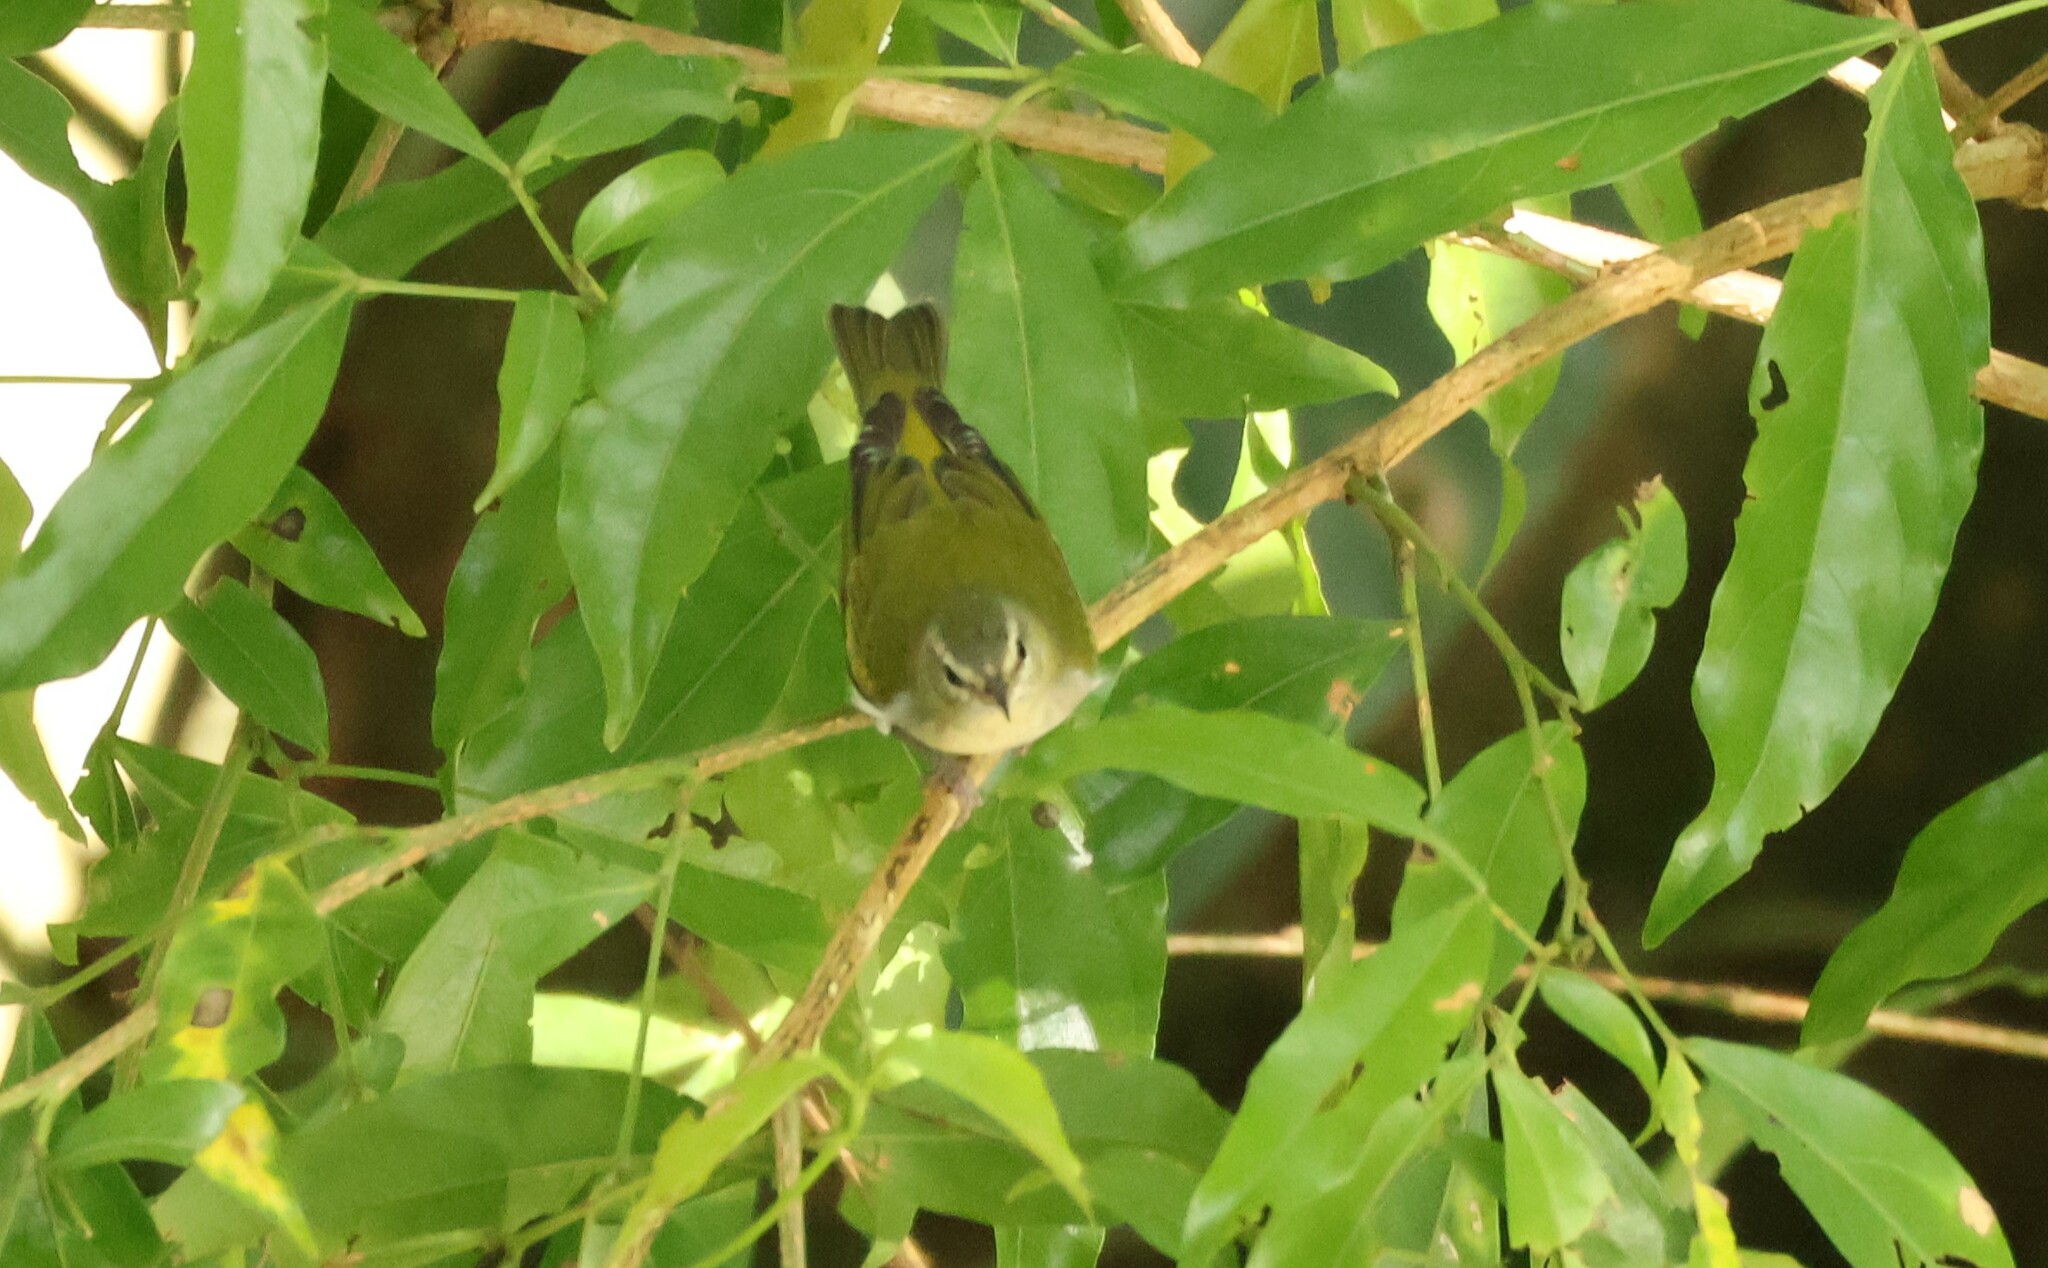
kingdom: Animalia
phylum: Chordata
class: Aves
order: Passeriformes
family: Parulidae
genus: Leiothlypis
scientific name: Leiothlypis peregrina
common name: Tennessee warbler
